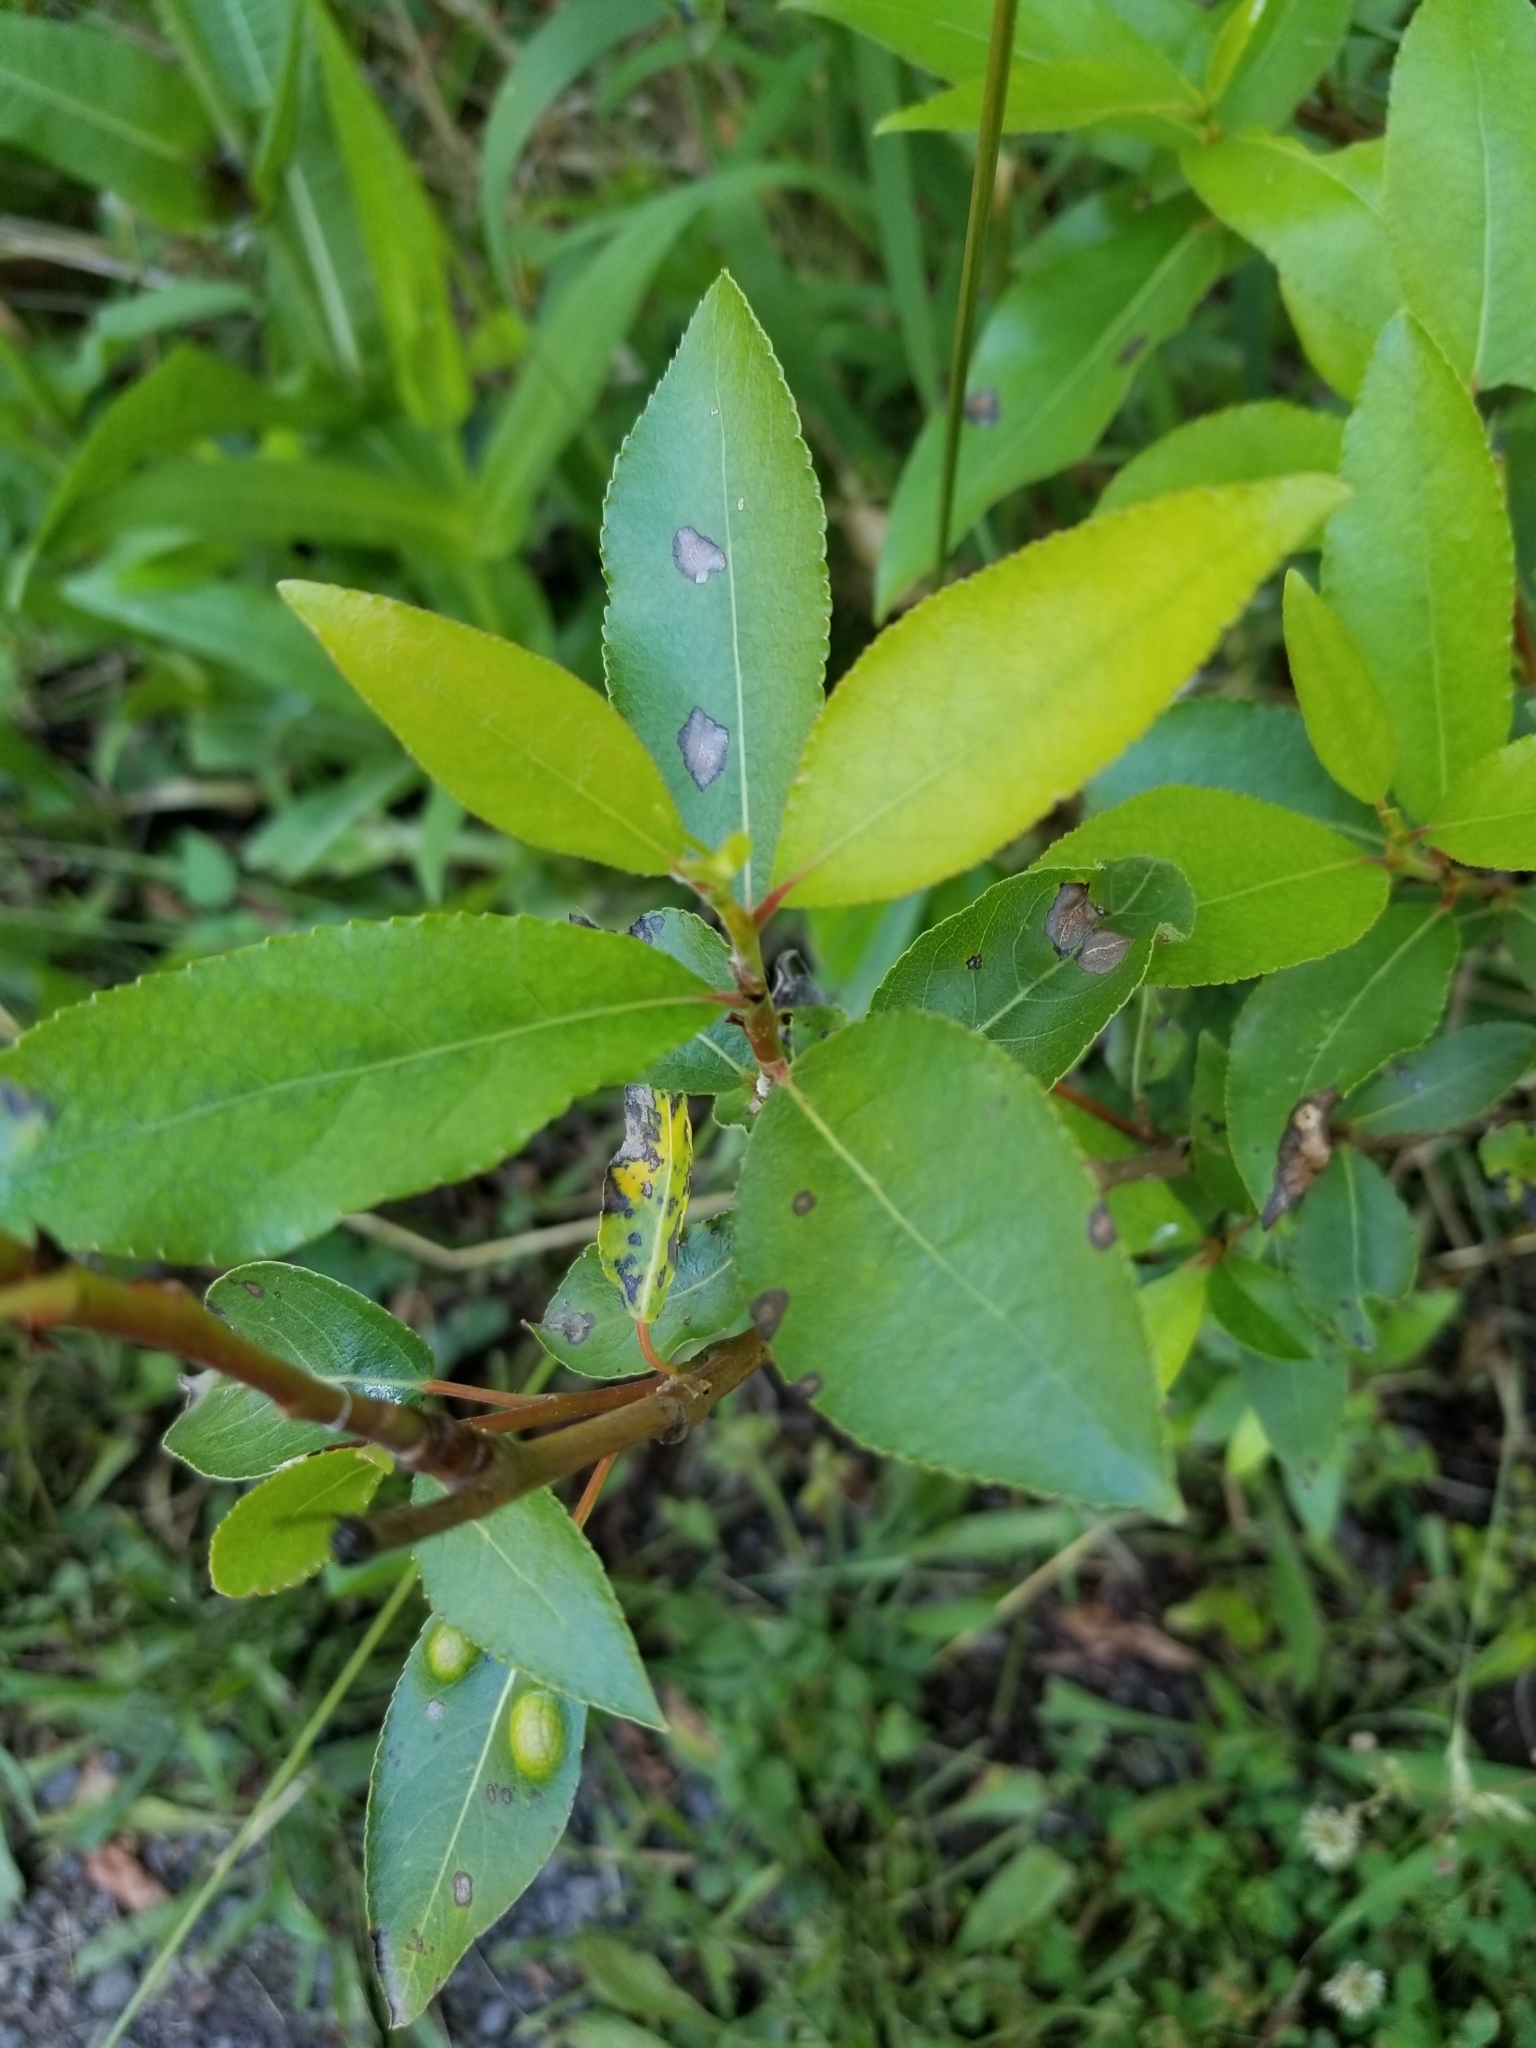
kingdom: Plantae
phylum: Tracheophyta
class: Magnoliopsida
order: Malpighiales
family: Salicaceae
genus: Salix
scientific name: Salix lucida
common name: Shining willow
